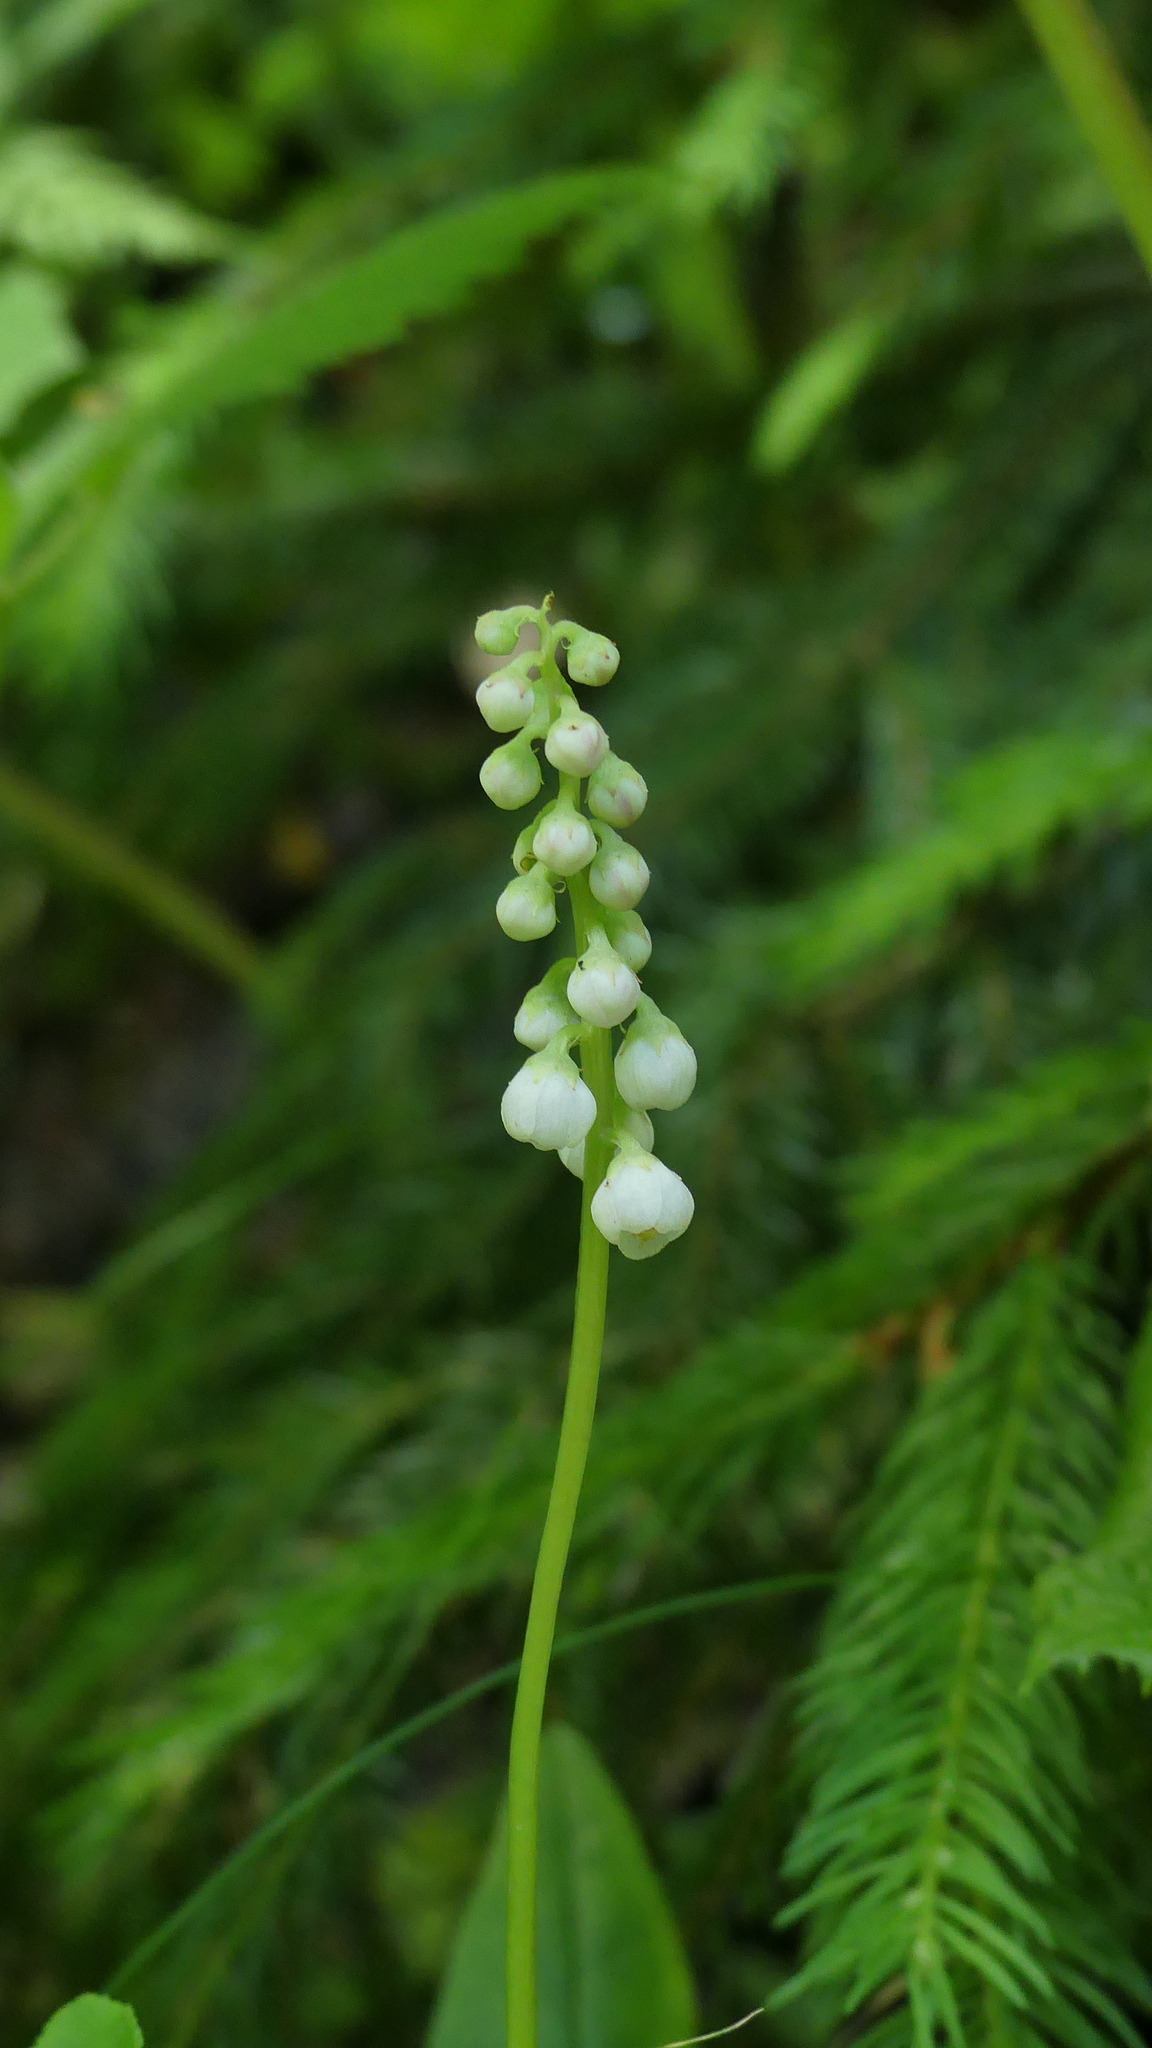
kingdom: Plantae
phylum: Tracheophyta
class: Magnoliopsida
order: Ericales
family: Ericaceae
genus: Pyrola
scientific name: Pyrola minor
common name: Common wintergreen
